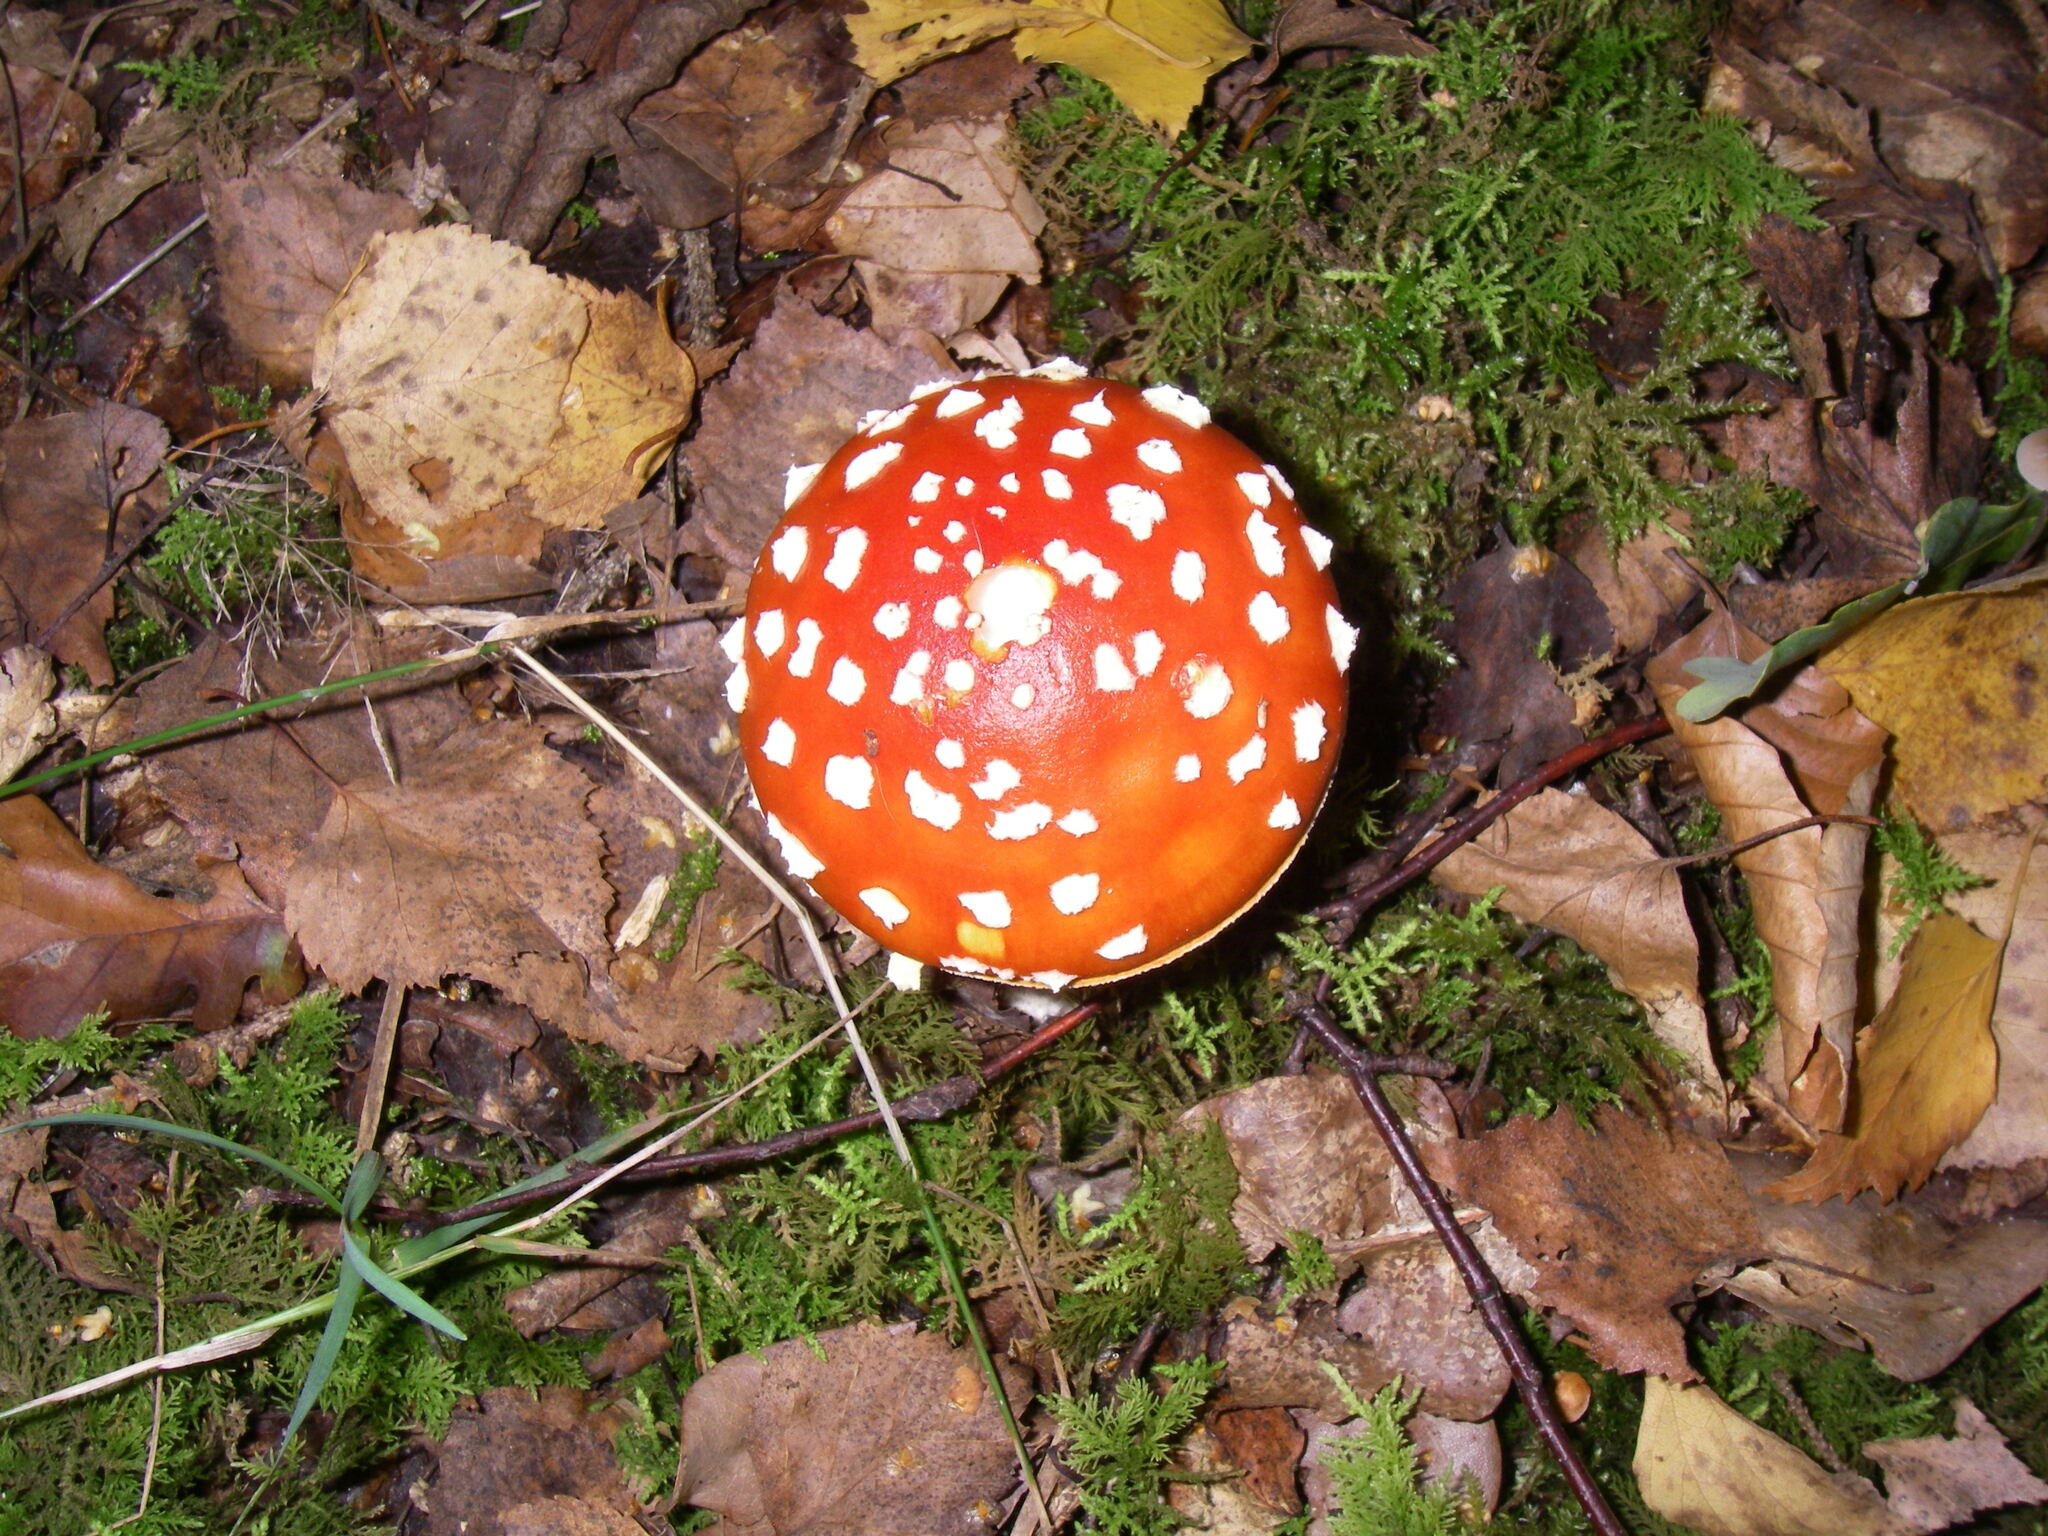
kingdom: Fungi
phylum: Basidiomycota
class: Agaricomycetes
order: Agaricales
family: Amanitaceae
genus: Amanita
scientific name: Amanita muscaria
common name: Fly agaric
